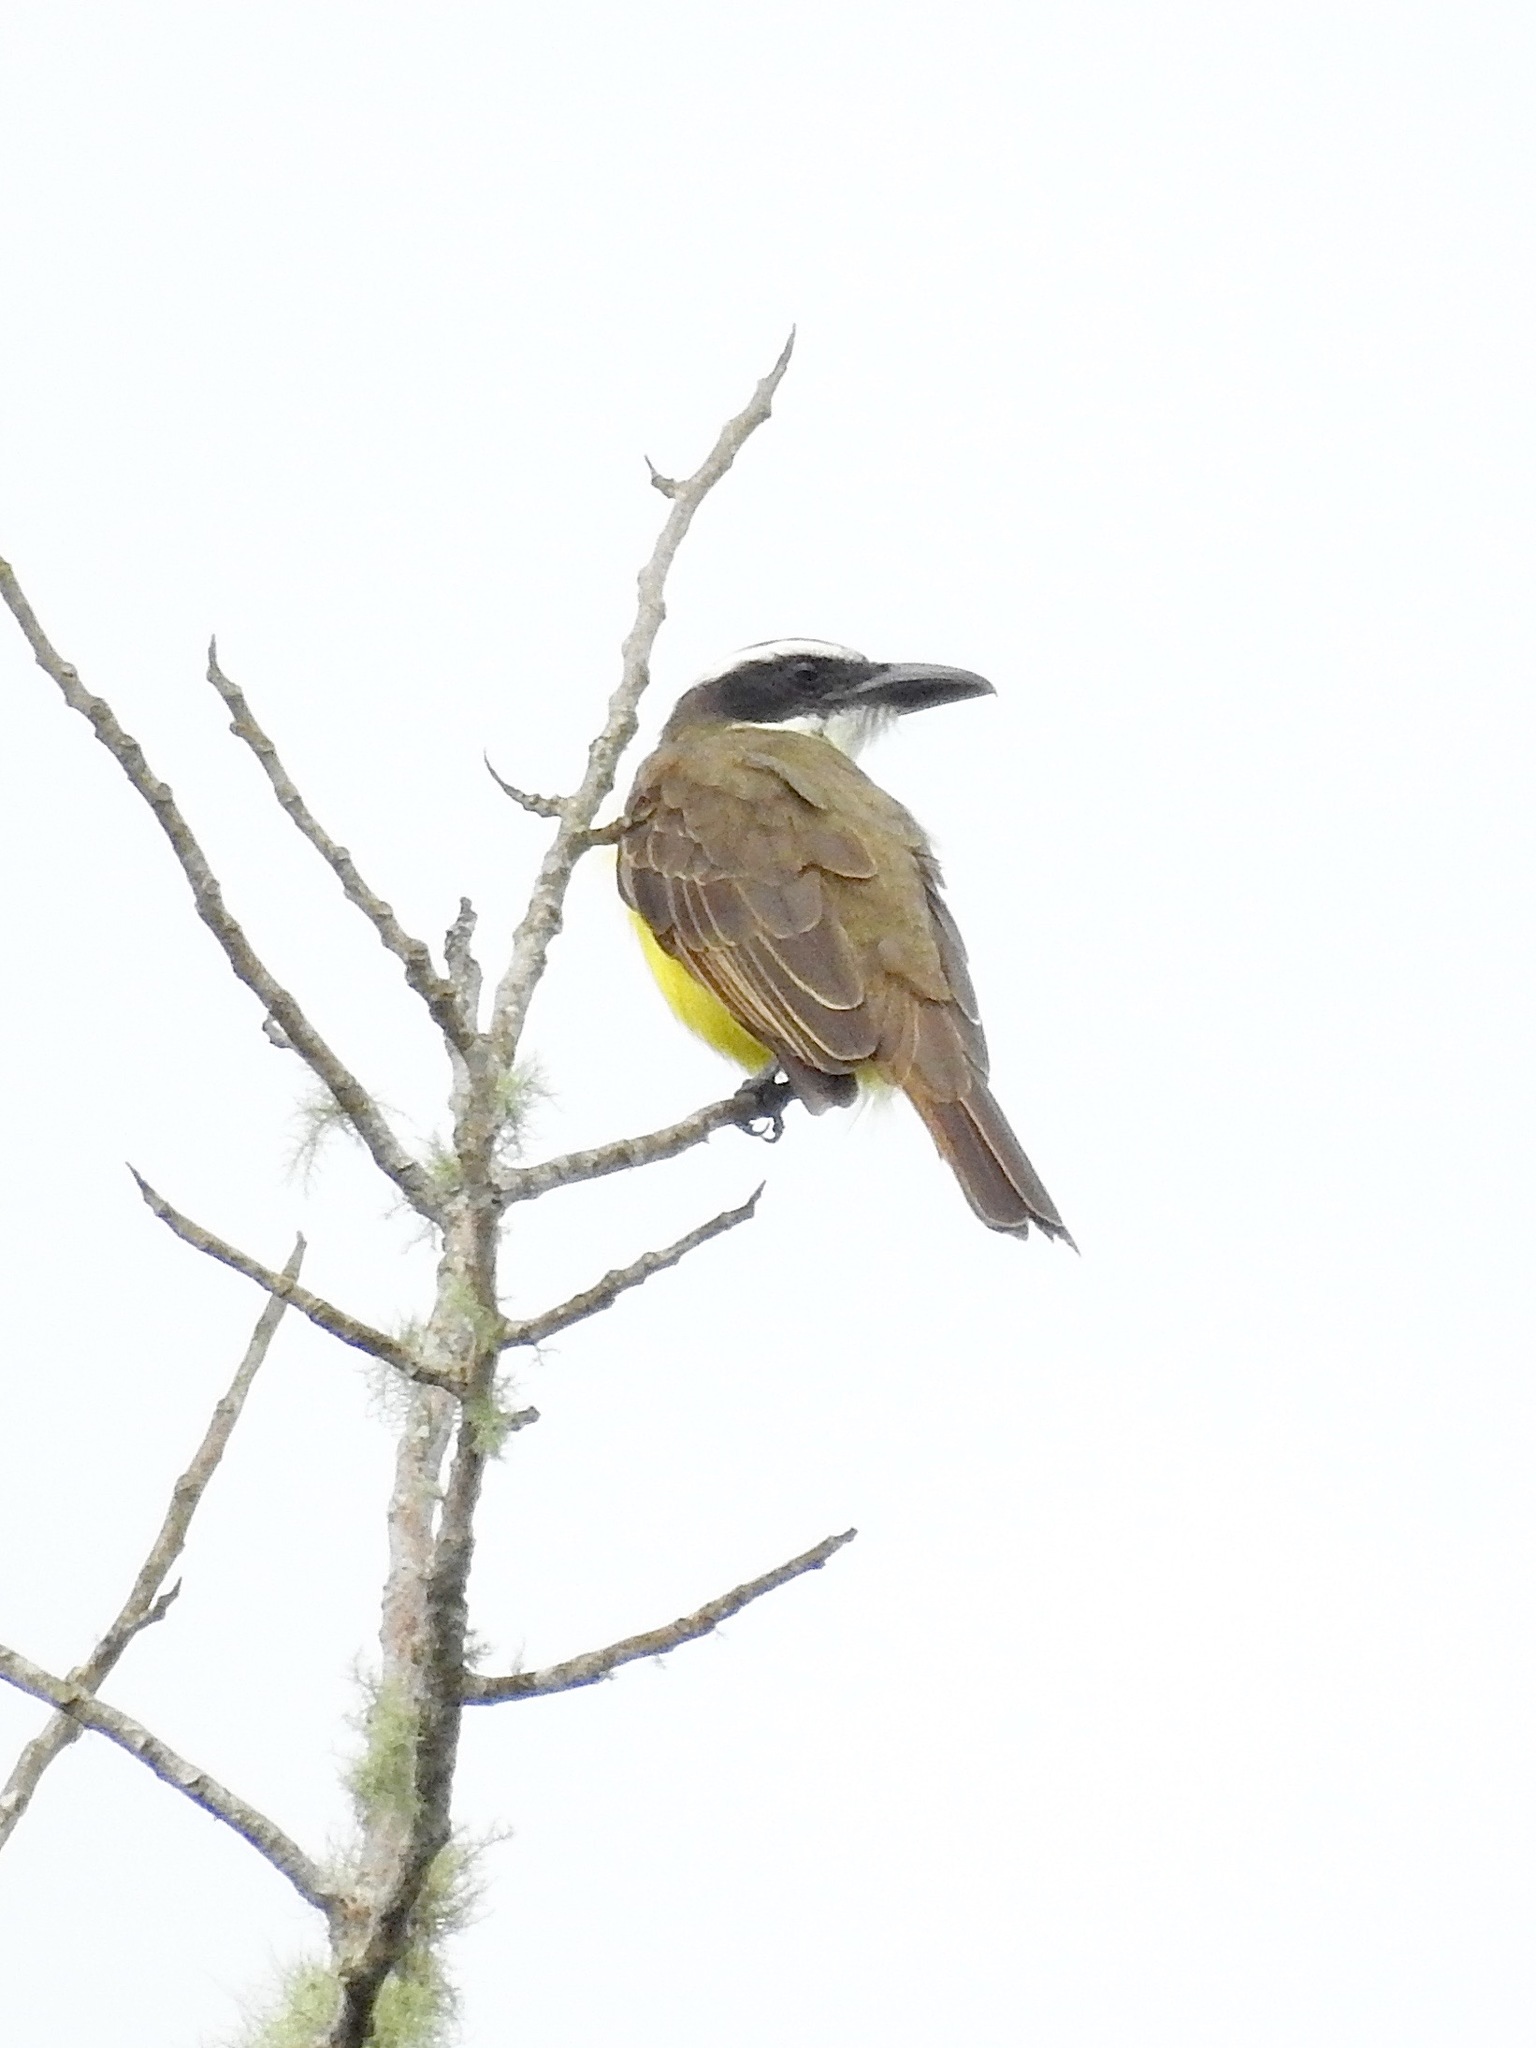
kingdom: Animalia
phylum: Chordata
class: Aves
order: Passeriformes
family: Tyrannidae
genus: Megarynchus
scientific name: Megarynchus pitangua
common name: Boat-billed flycatcher
